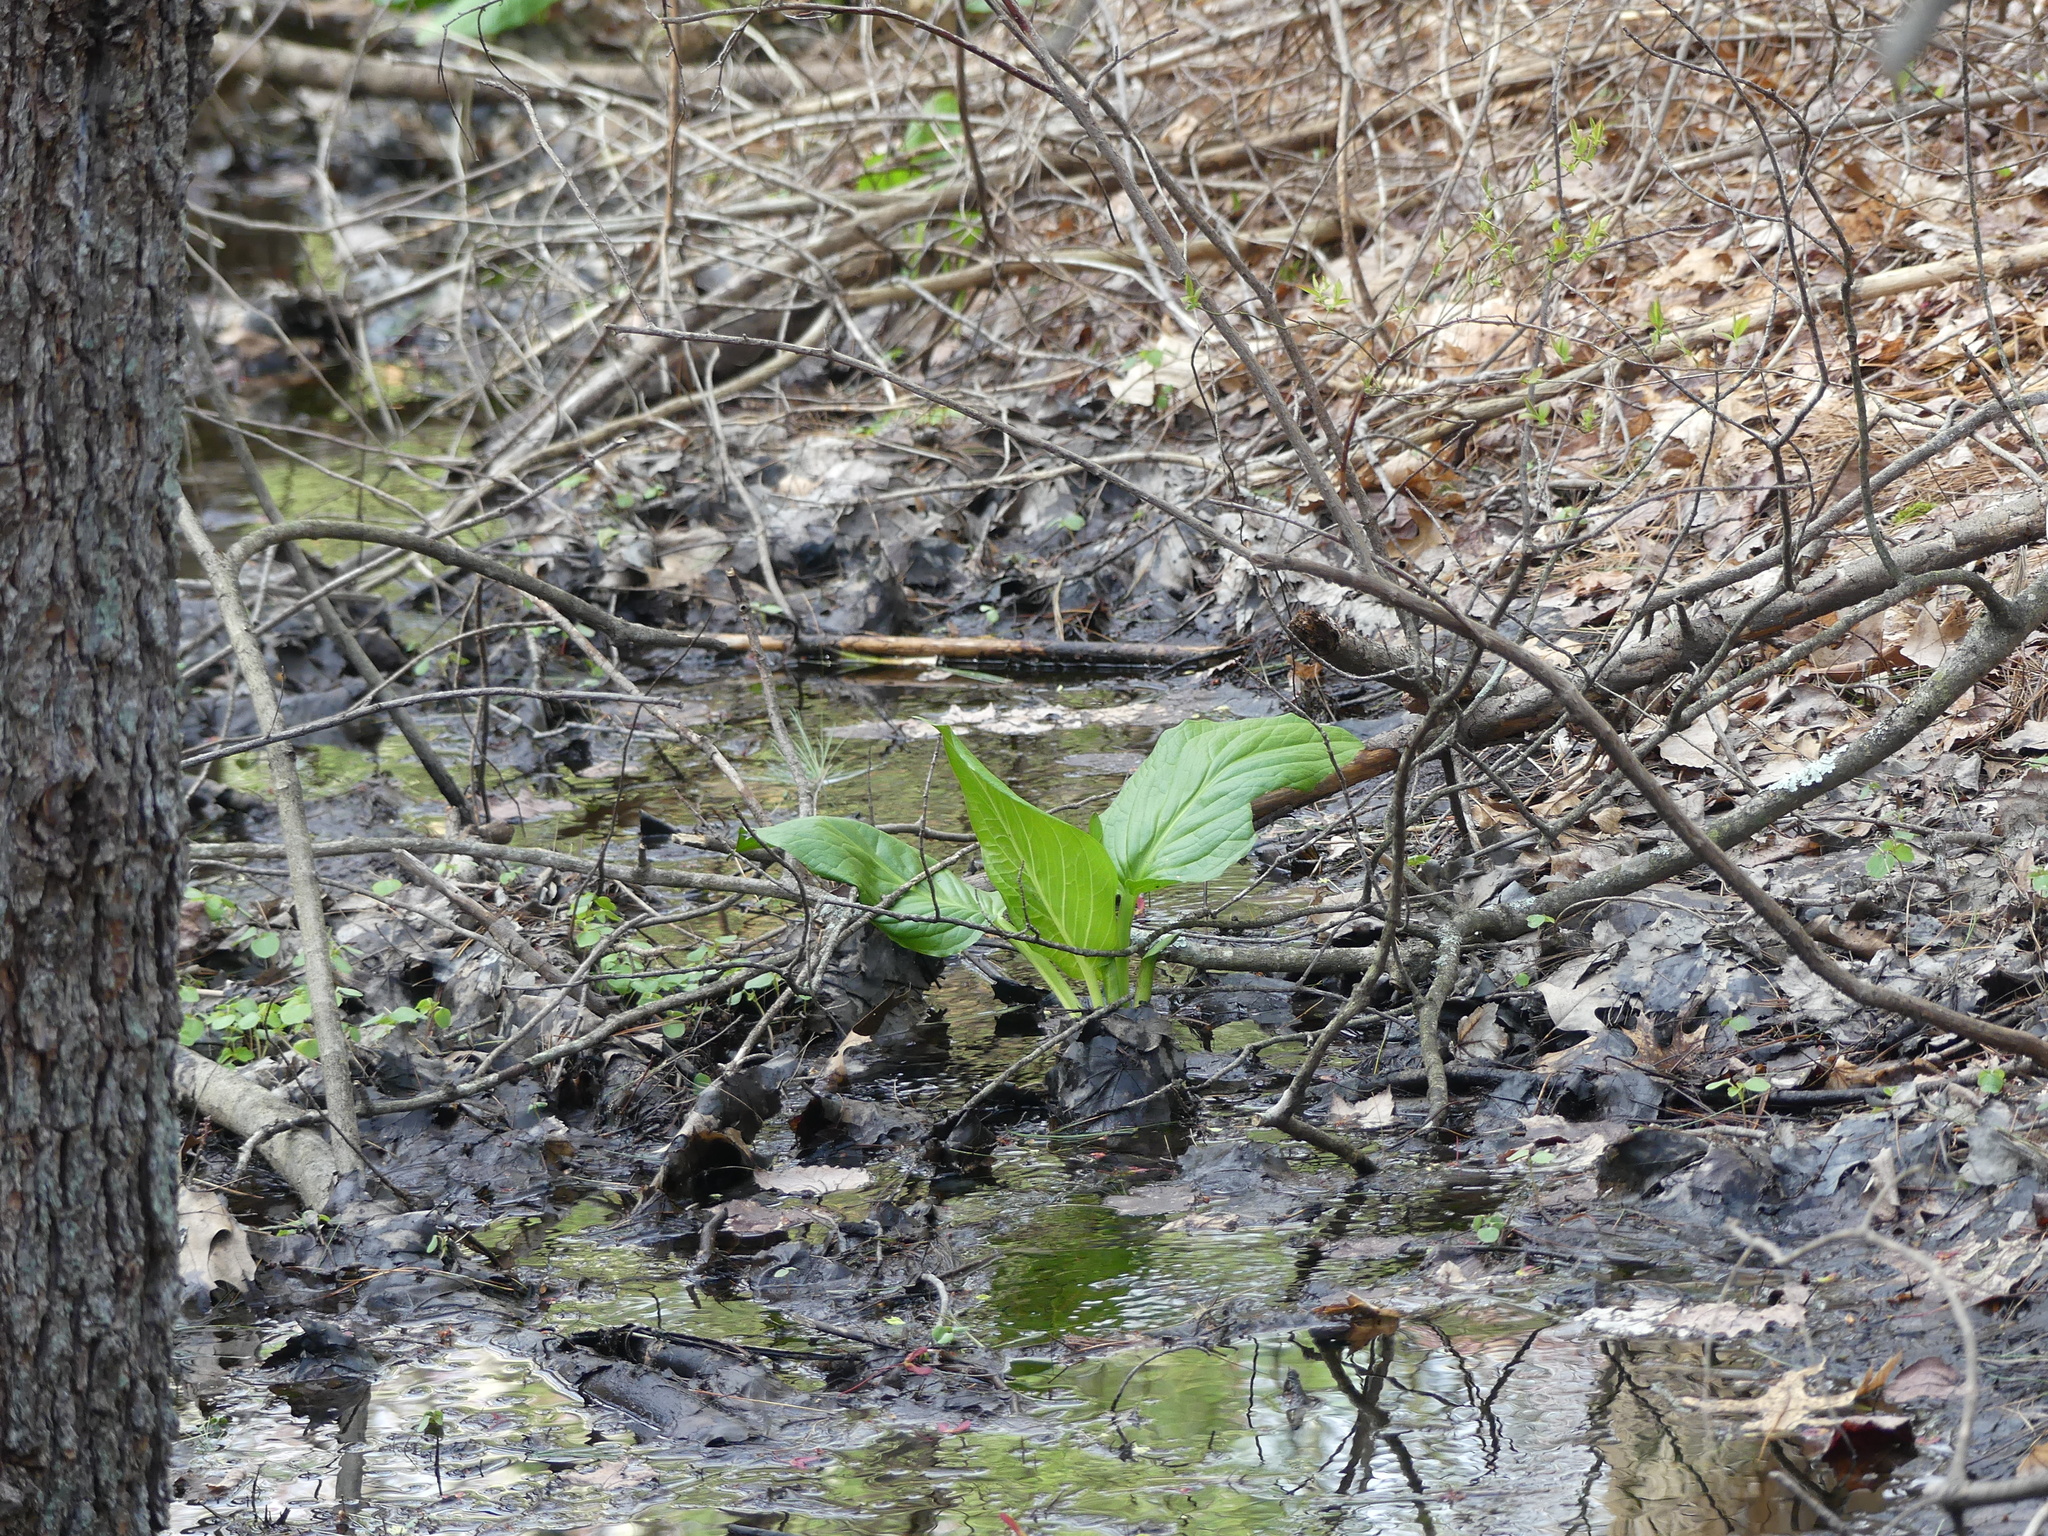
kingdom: Plantae
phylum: Tracheophyta
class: Liliopsida
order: Alismatales
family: Araceae
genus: Symplocarpus
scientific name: Symplocarpus foetidus
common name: Eastern skunk cabbage
